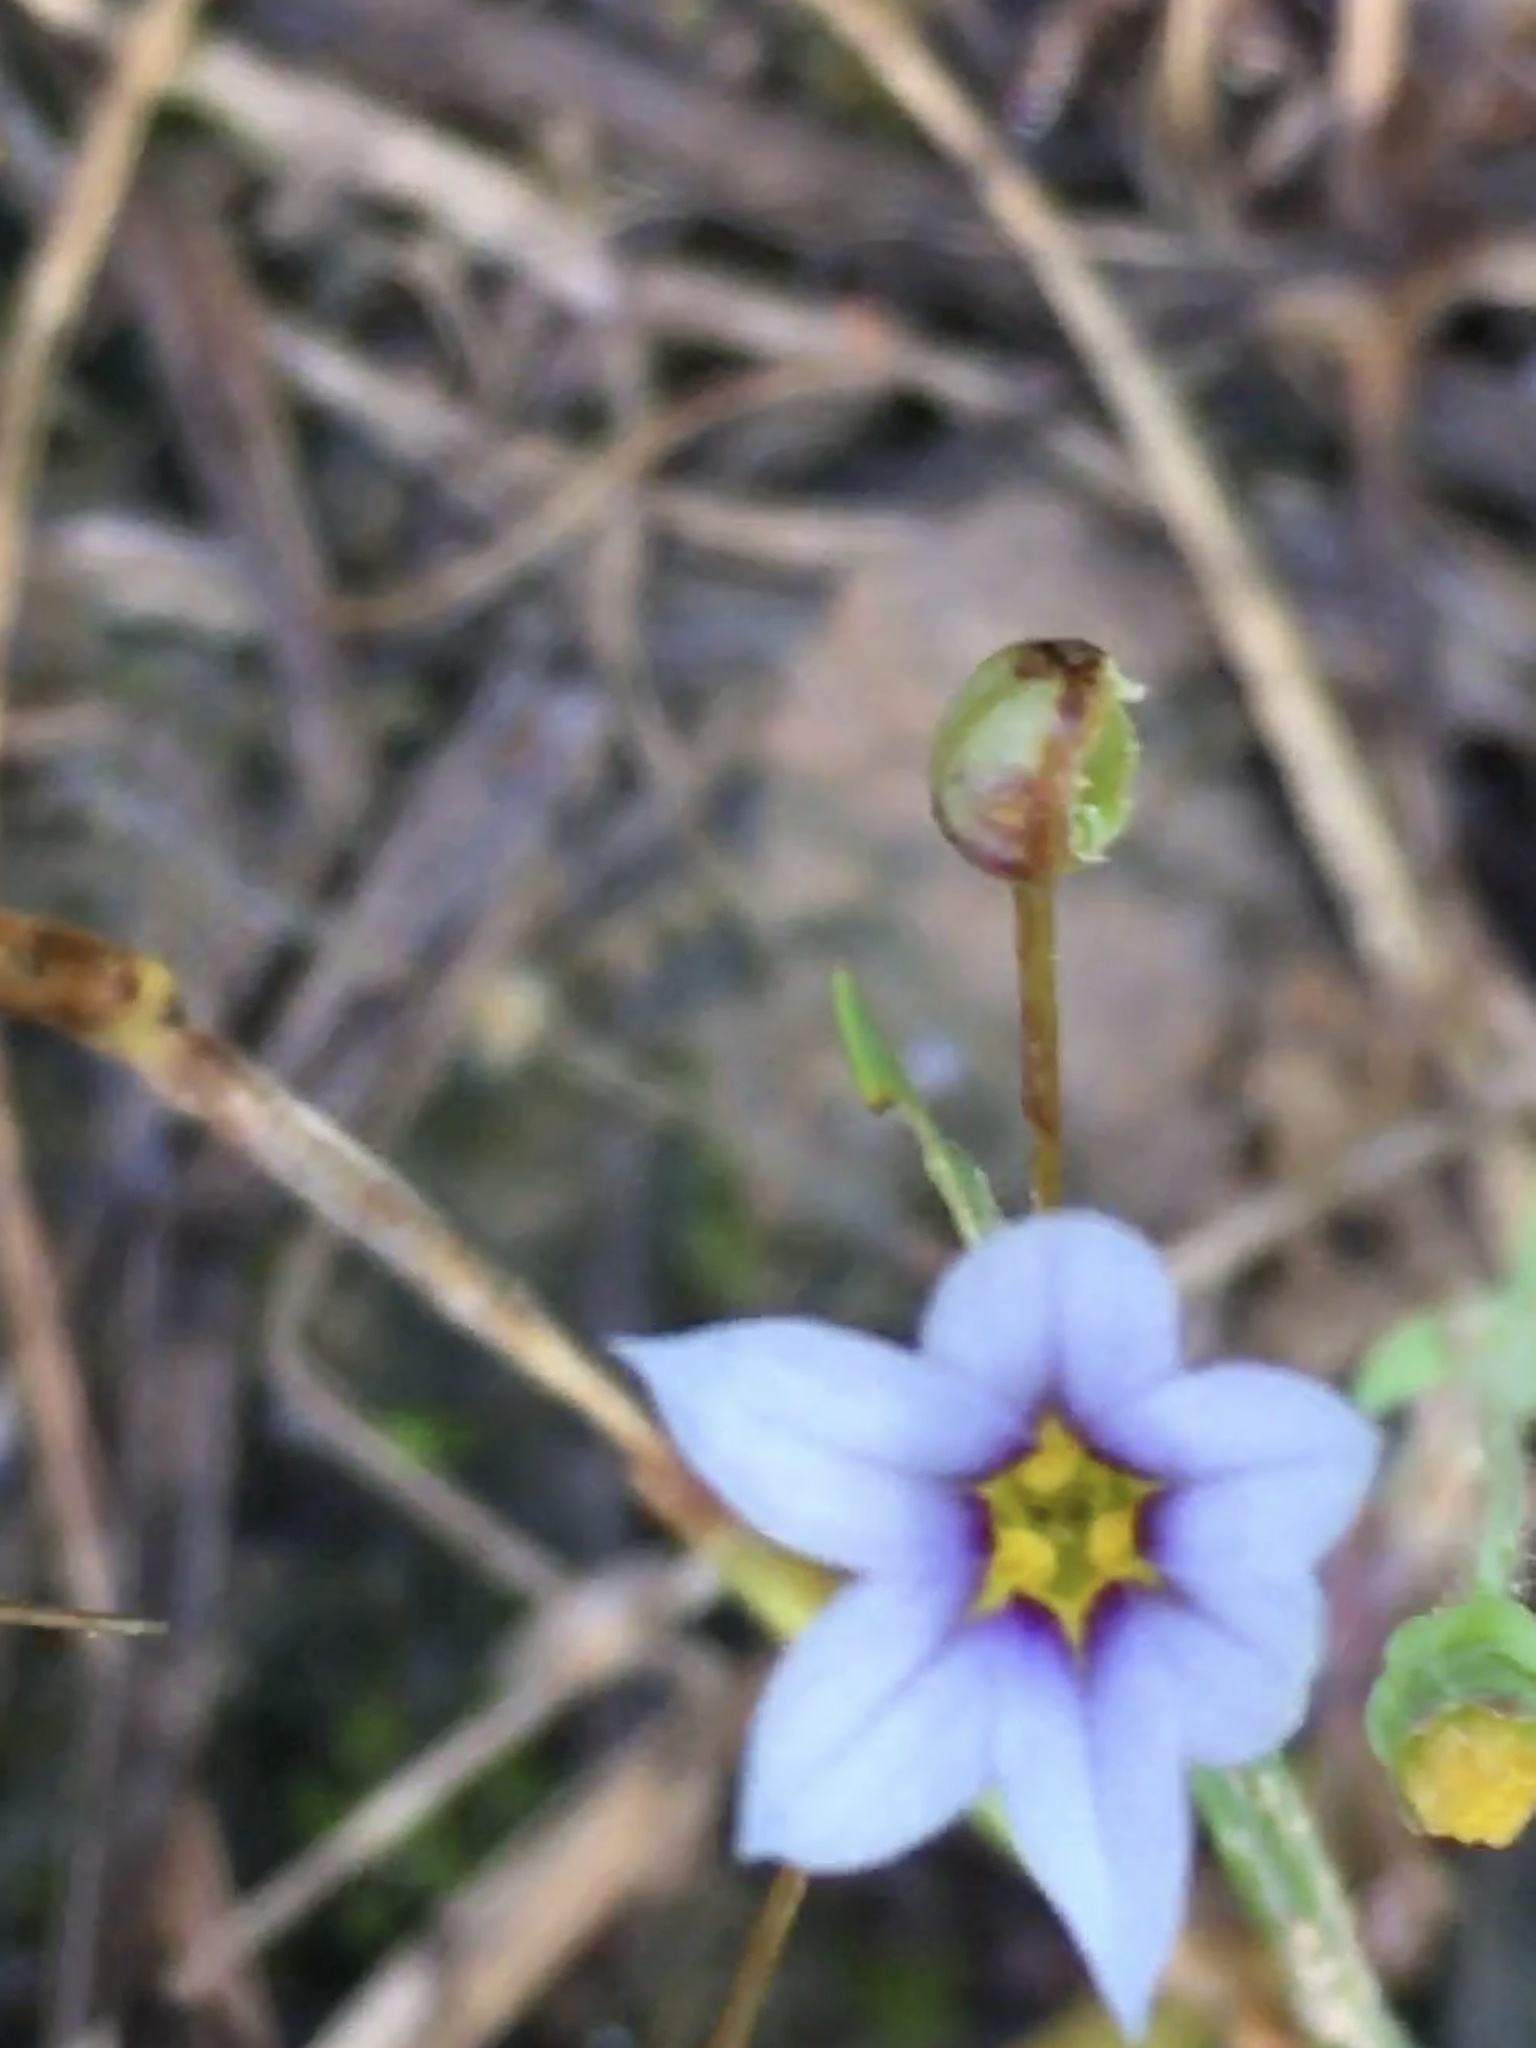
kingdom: Plantae
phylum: Tracheophyta
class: Liliopsida
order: Asparagales
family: Iridaceae
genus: Sisyrinchium
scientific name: Sisyrinchium micranthum
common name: Bermuda pigroot
